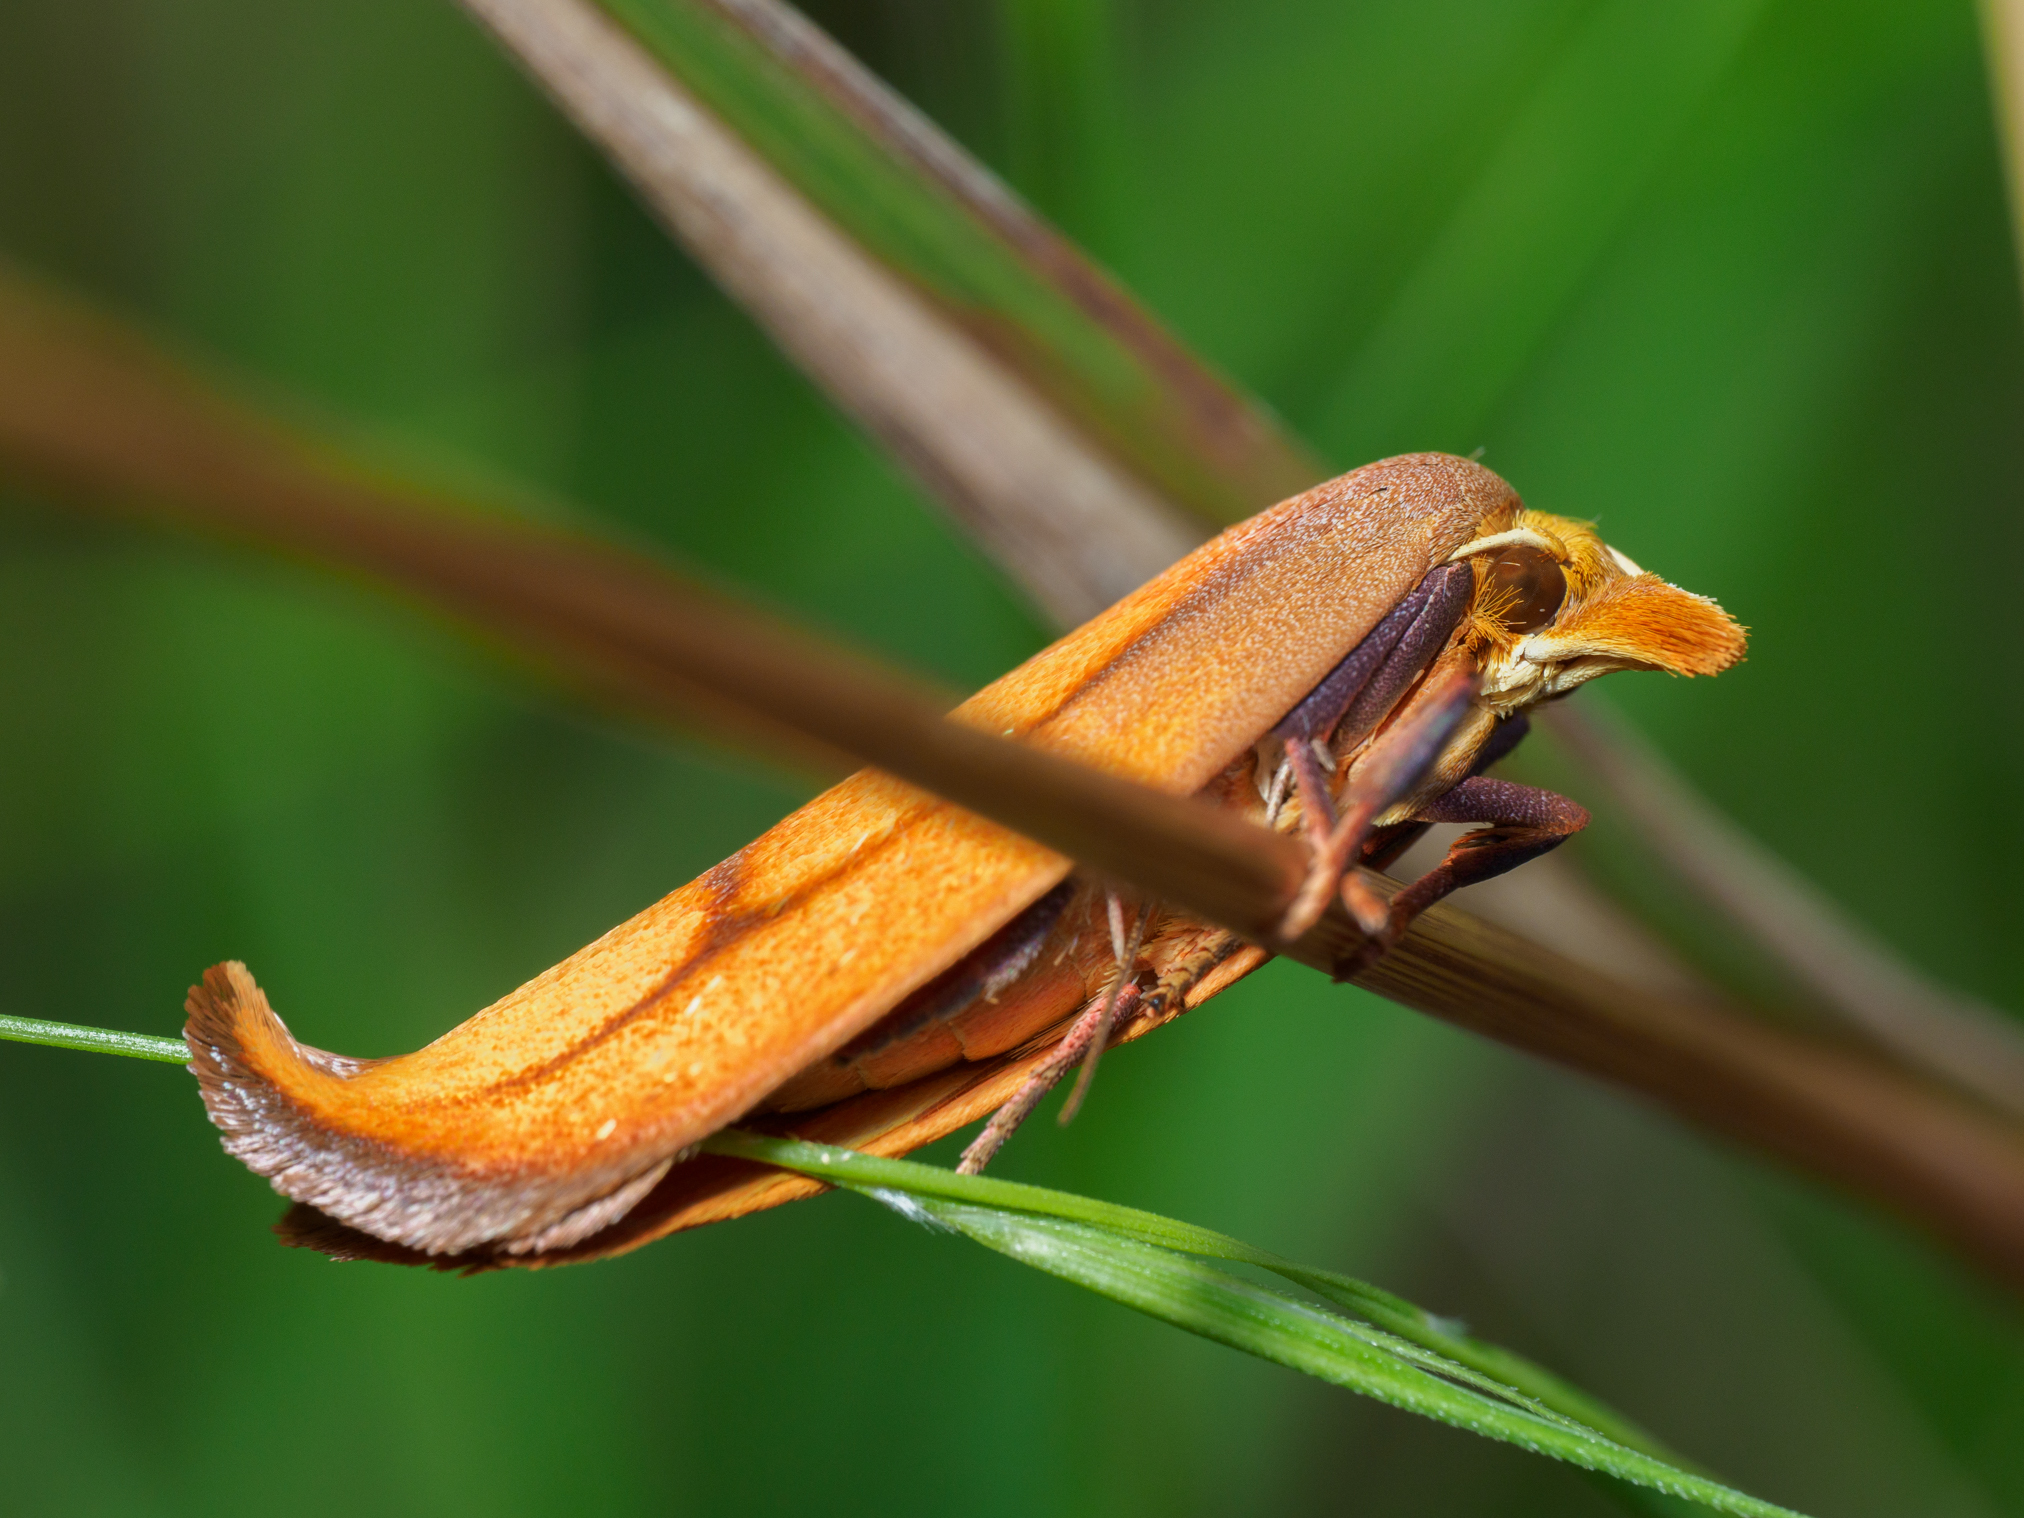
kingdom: Animalia
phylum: Arthropoda
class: Insecta
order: Lepidoptera
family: Oecophoridae
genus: Wingia
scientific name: Wingia aurata
